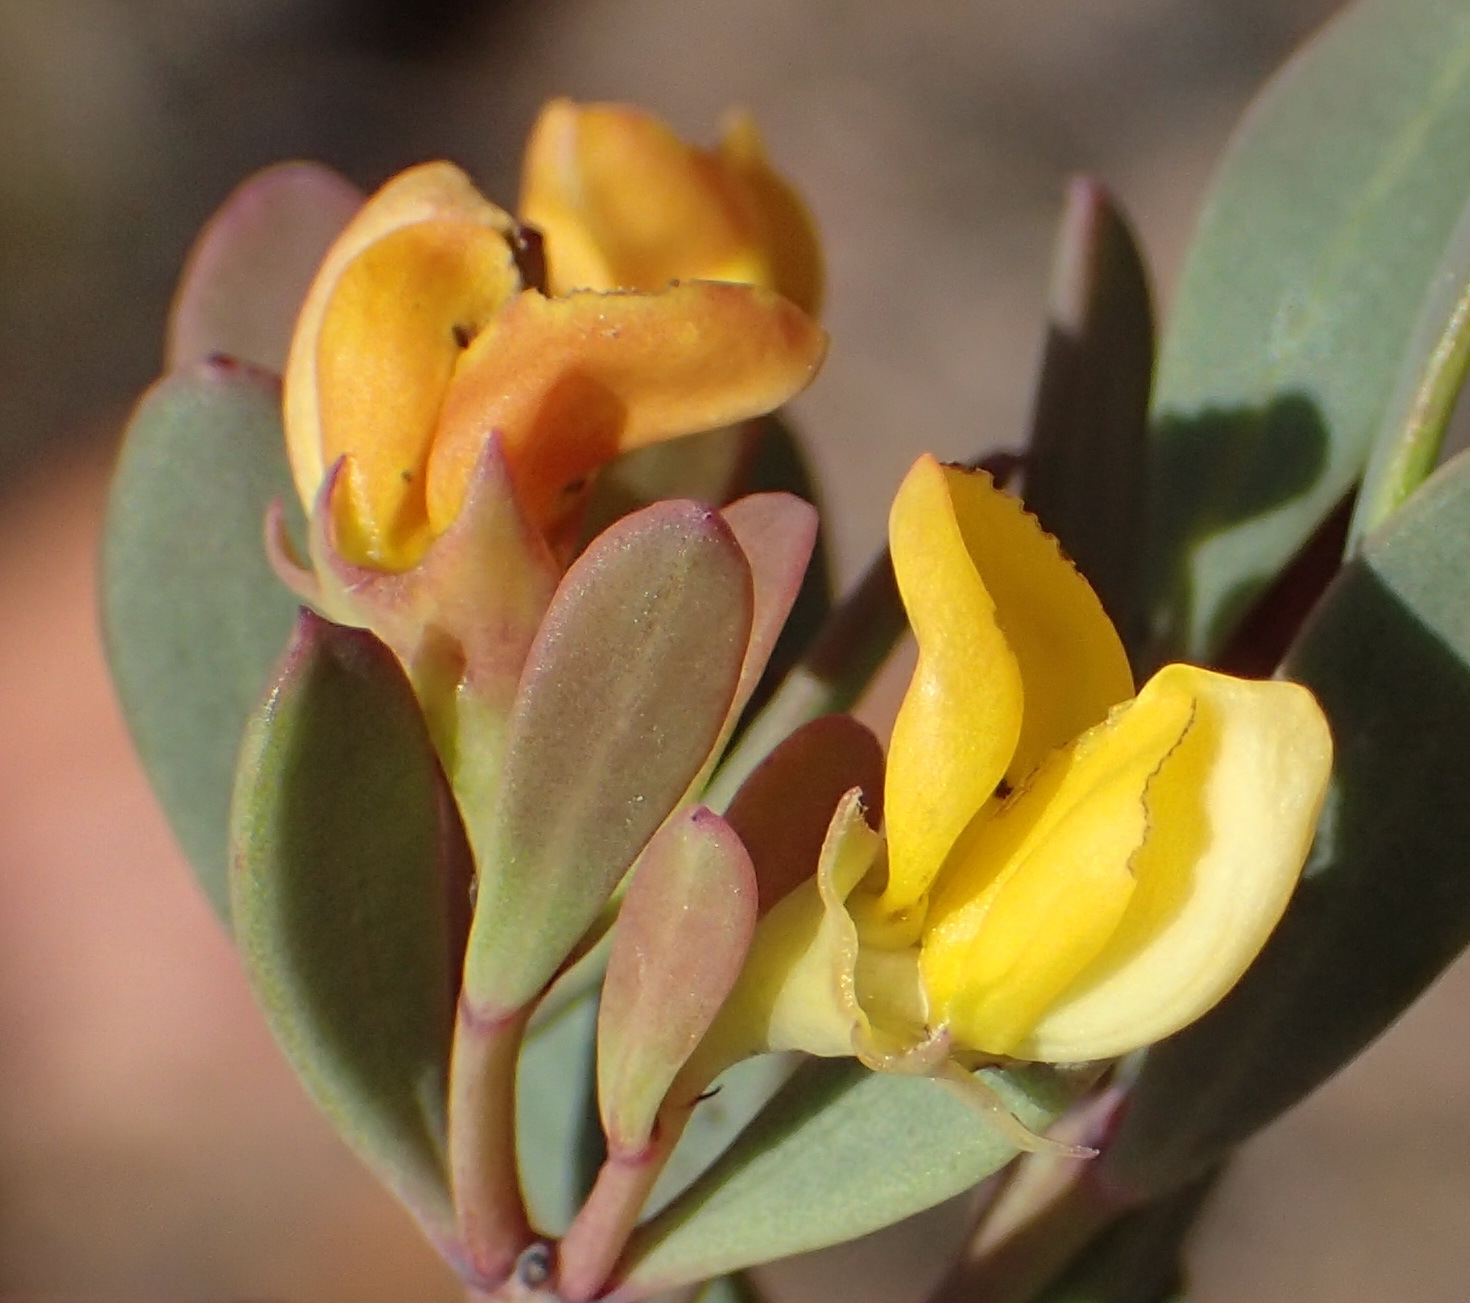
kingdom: Plantae
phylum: Tracheophyta
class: Magnoliopsida
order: Fabales
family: Fabaceae
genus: Rafnia
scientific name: Rafnia capensis
